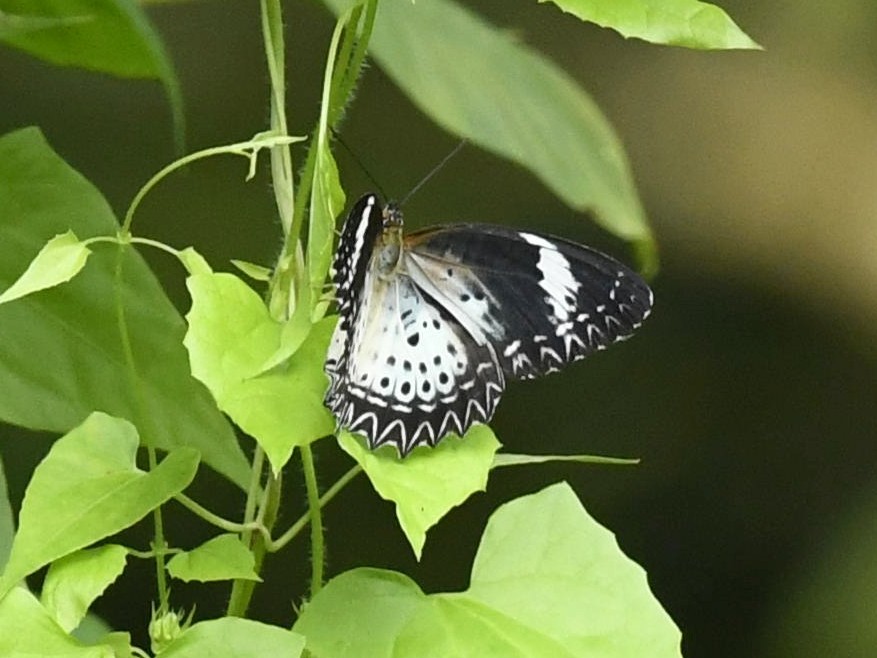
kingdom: Animalia
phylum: Arthropoda
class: Insecta
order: Lepidoptera
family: Nymphalidae
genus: Cethosia
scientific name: Cethosia cyane
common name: Leopard lacewing butterfly
